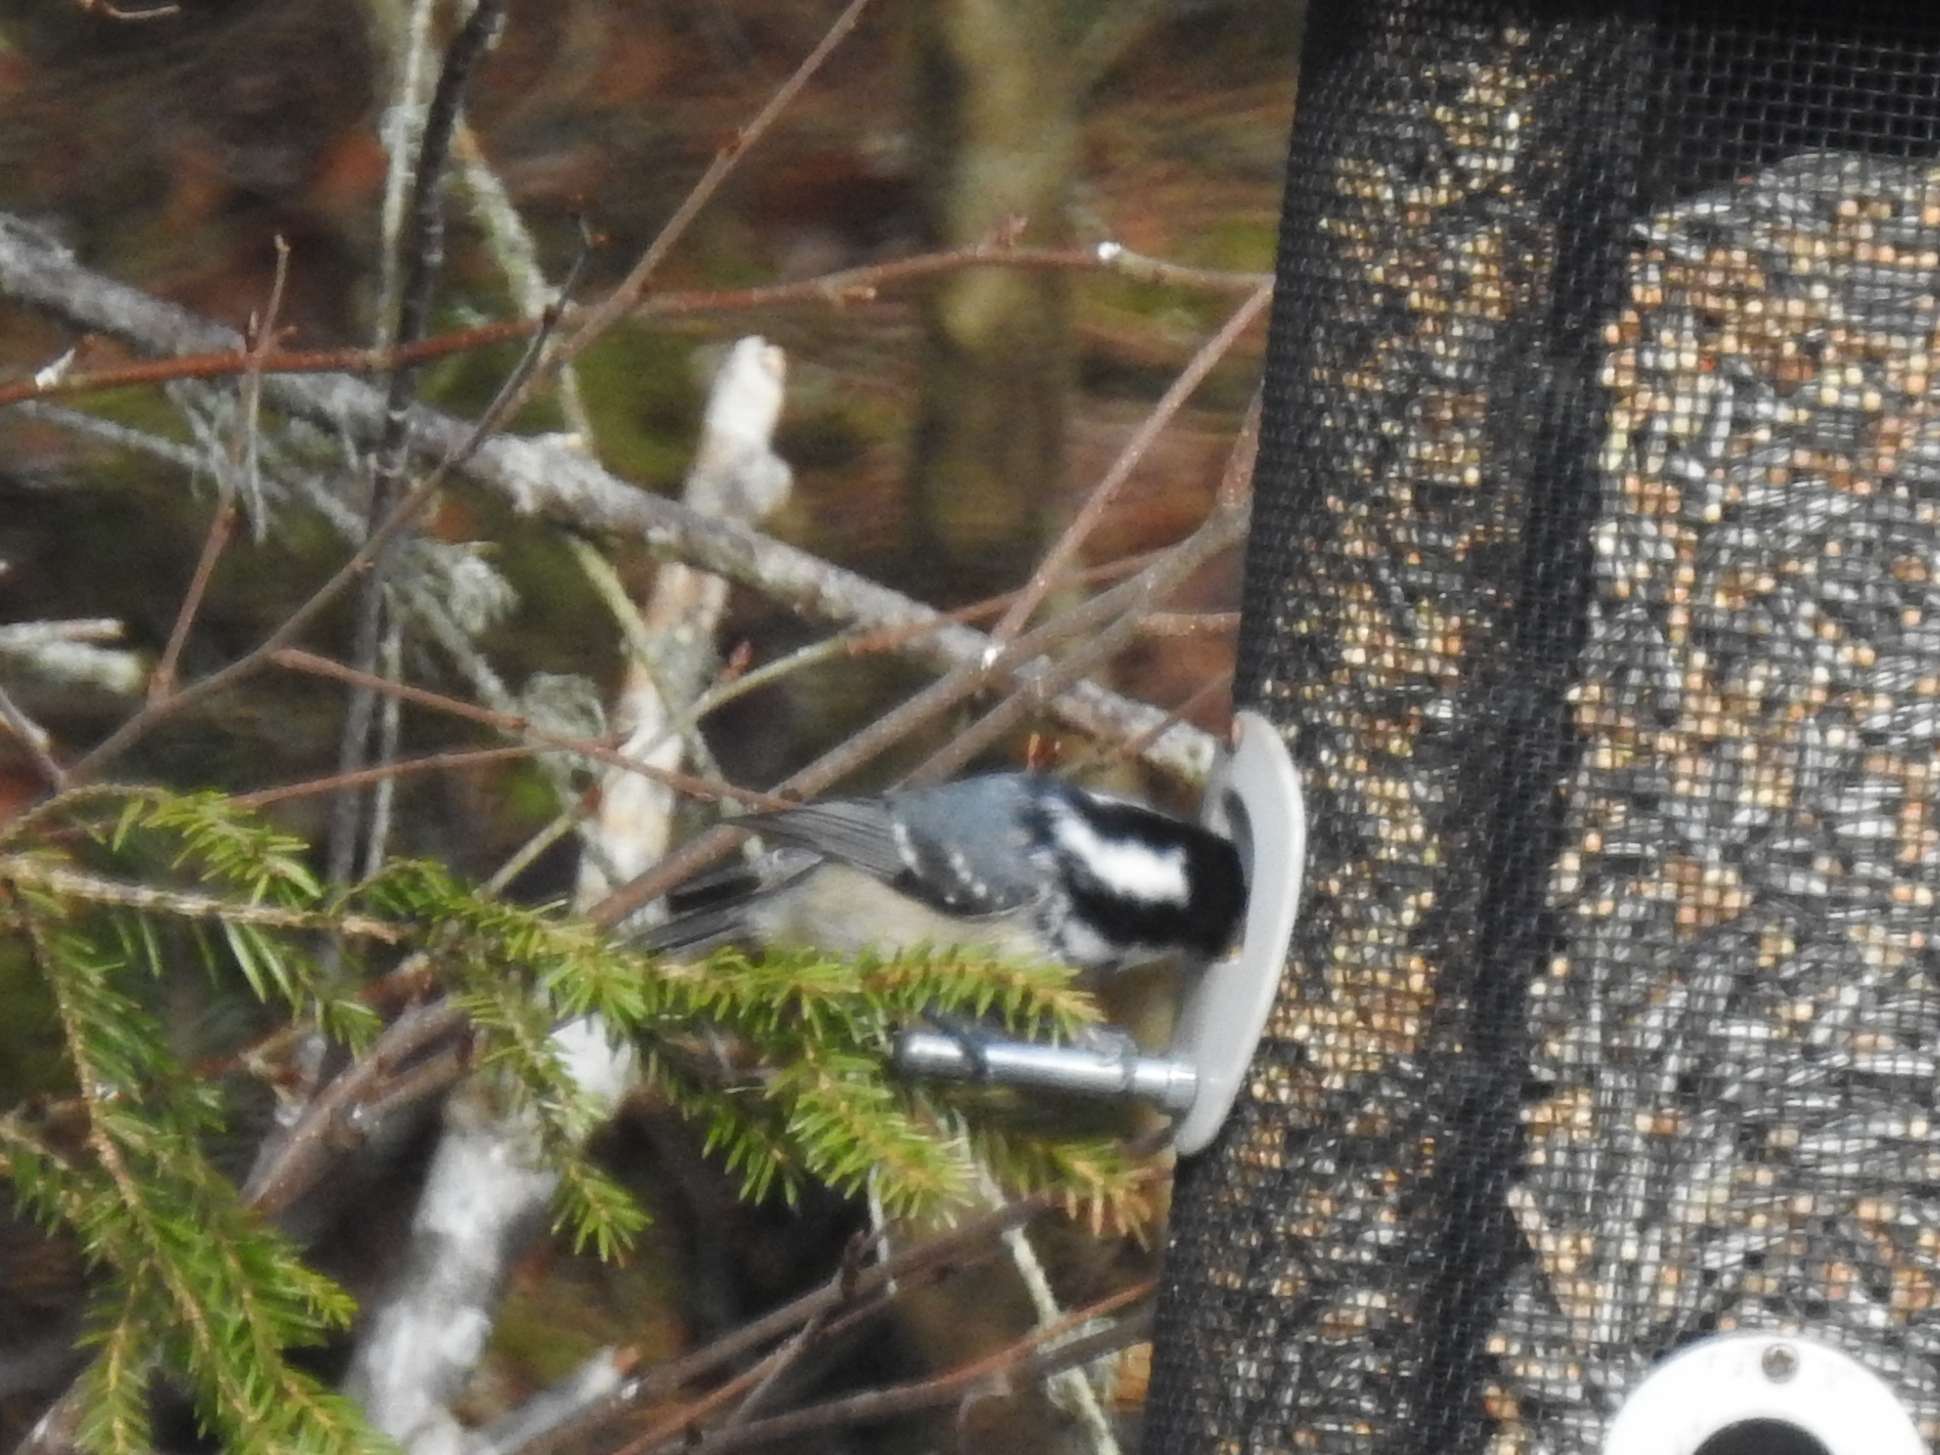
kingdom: Animalia
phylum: Chordata
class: Aves
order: Passeriformes
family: Paridae
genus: Periparus
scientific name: Periparus ater
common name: Coal tit
